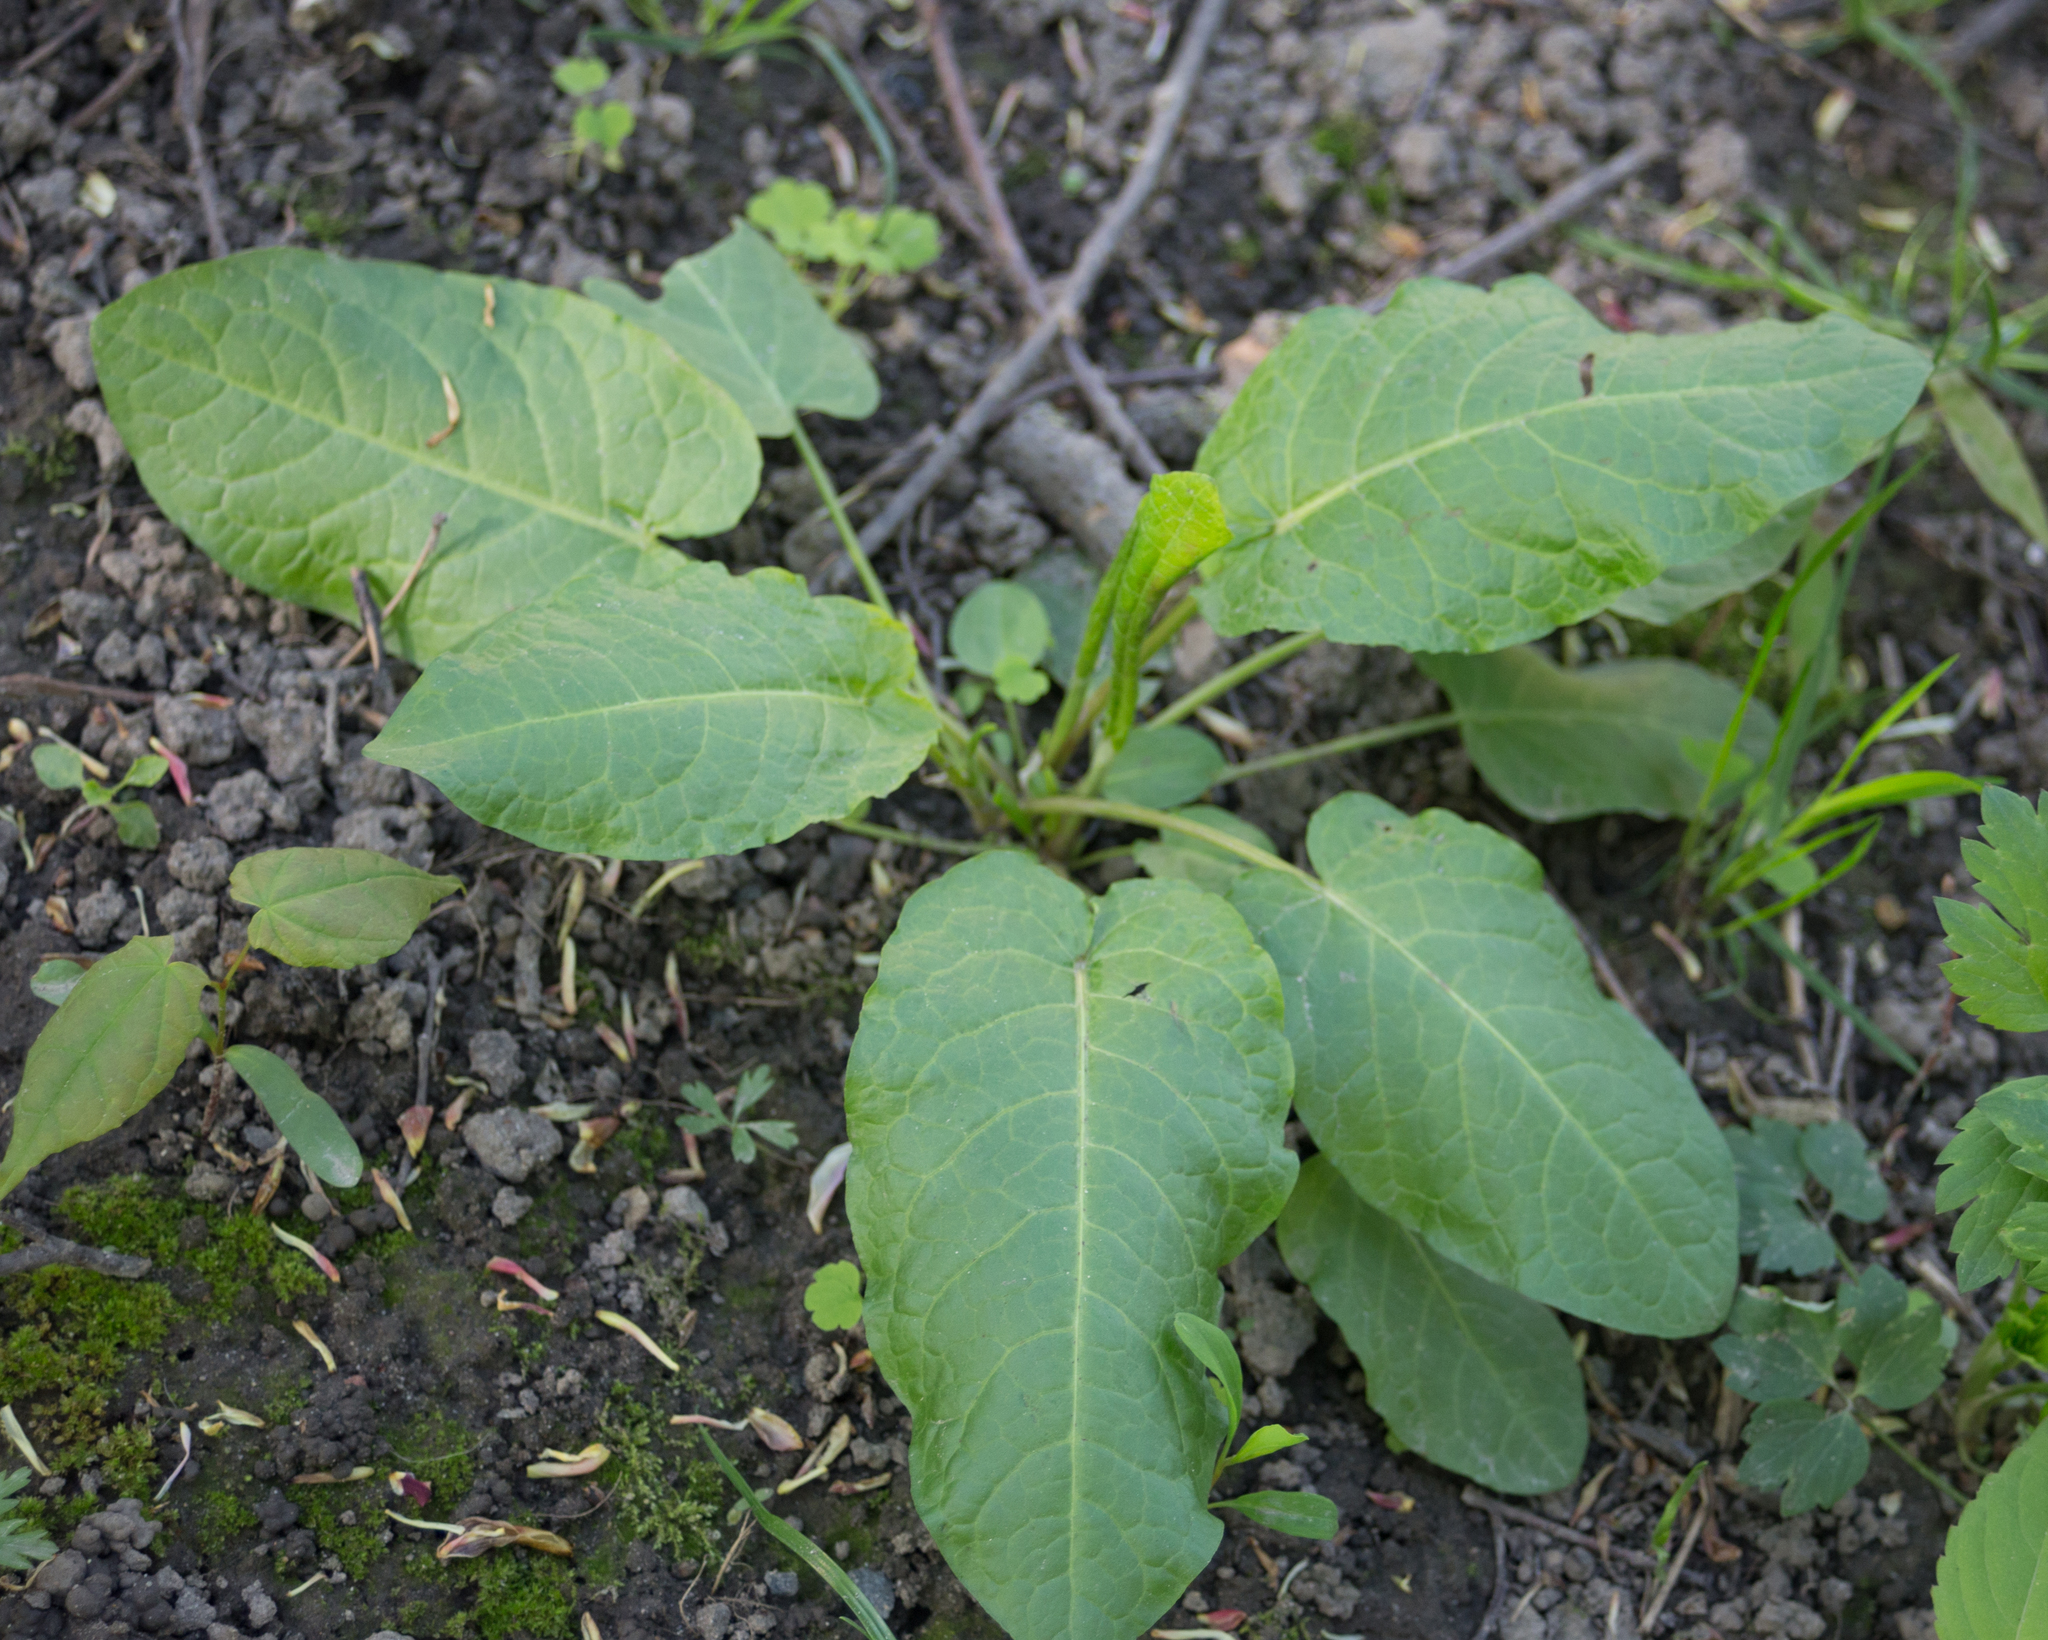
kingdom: Plantae
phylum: Tracheophyta
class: Magnoliopsida
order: Caryophyllales
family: Polygonaceae
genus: Rumex
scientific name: Rumex obtusifolius
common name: Bitter dock
